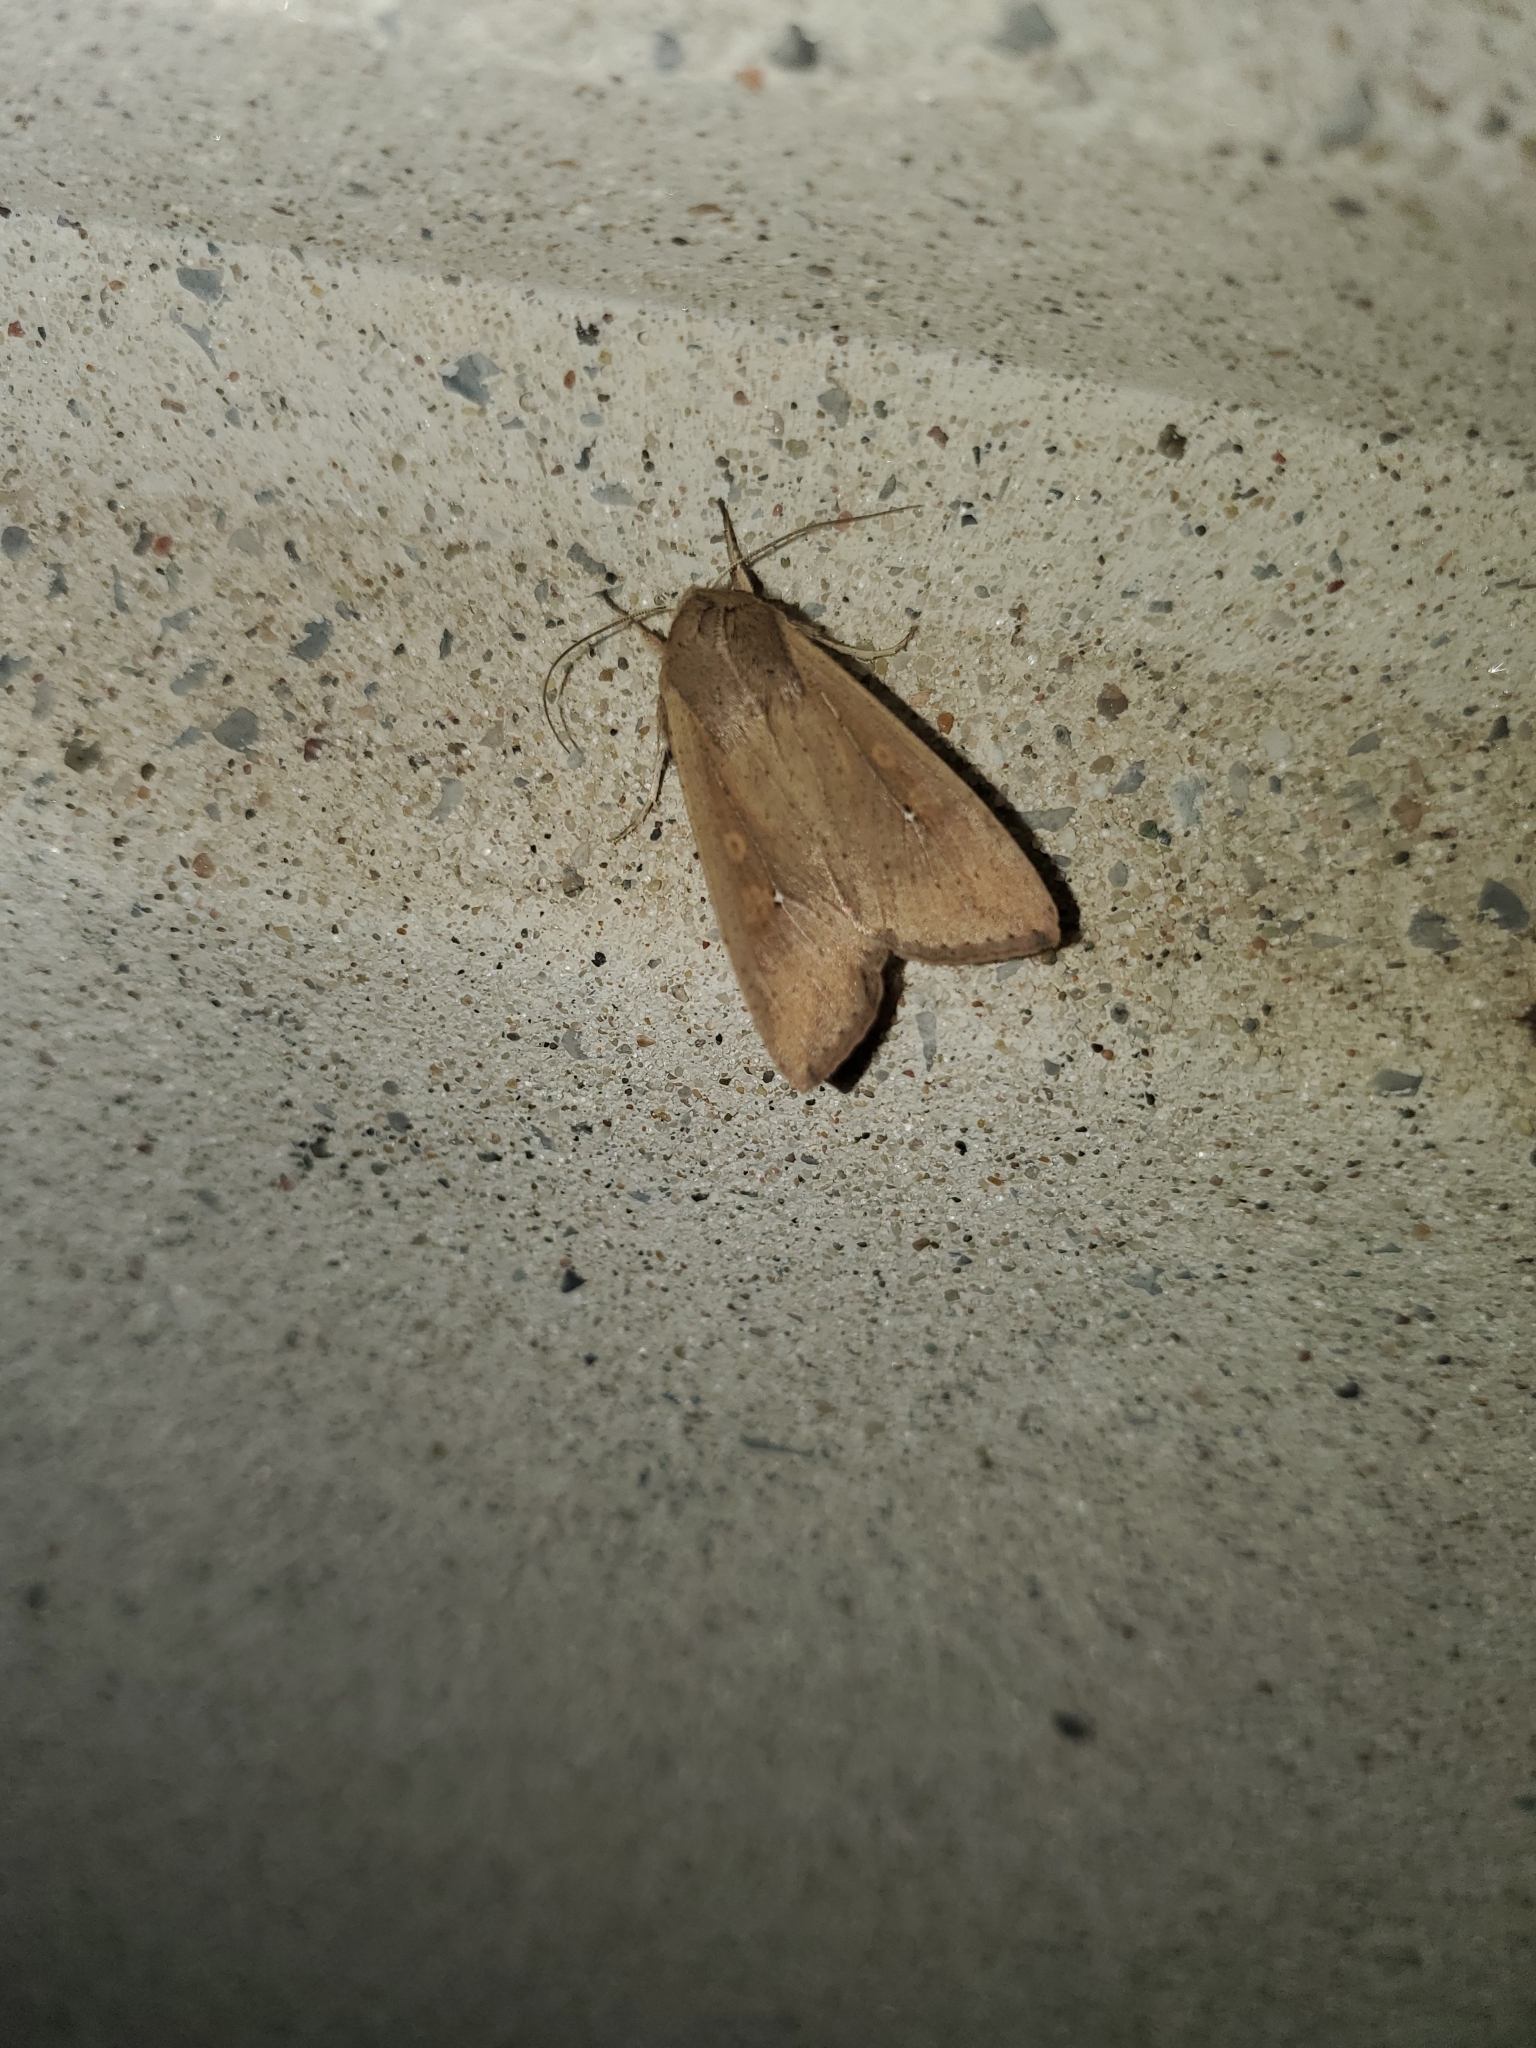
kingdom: Animalia
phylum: Arthropoda
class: Insecta
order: Lepidoptera
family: Noctuidae
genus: Mythimna
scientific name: Mythimna unipuncta
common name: White-speck
